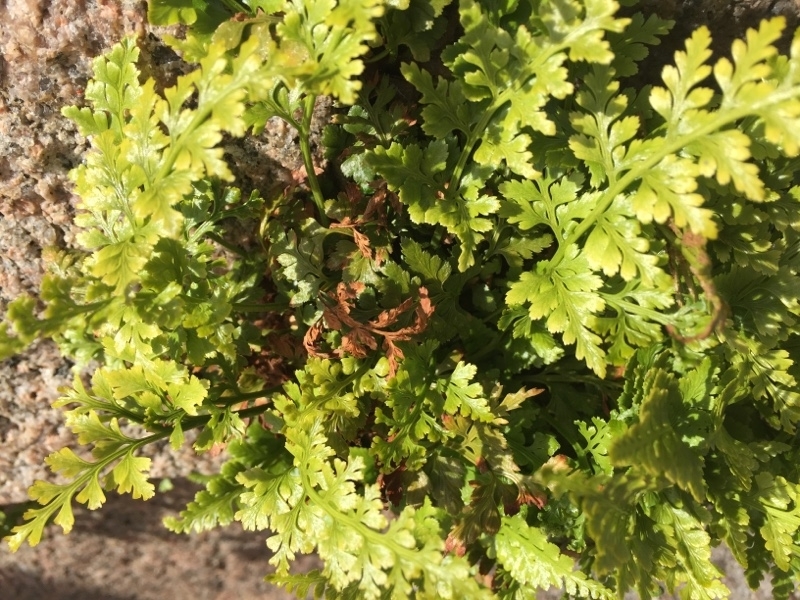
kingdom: Plantae
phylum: Tracheophyta
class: Polypodiopsida
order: Polypodiales
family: Aspleniaceae
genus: Asplenium
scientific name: Asplenium adiantum-nigrum
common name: Black spleenwort
